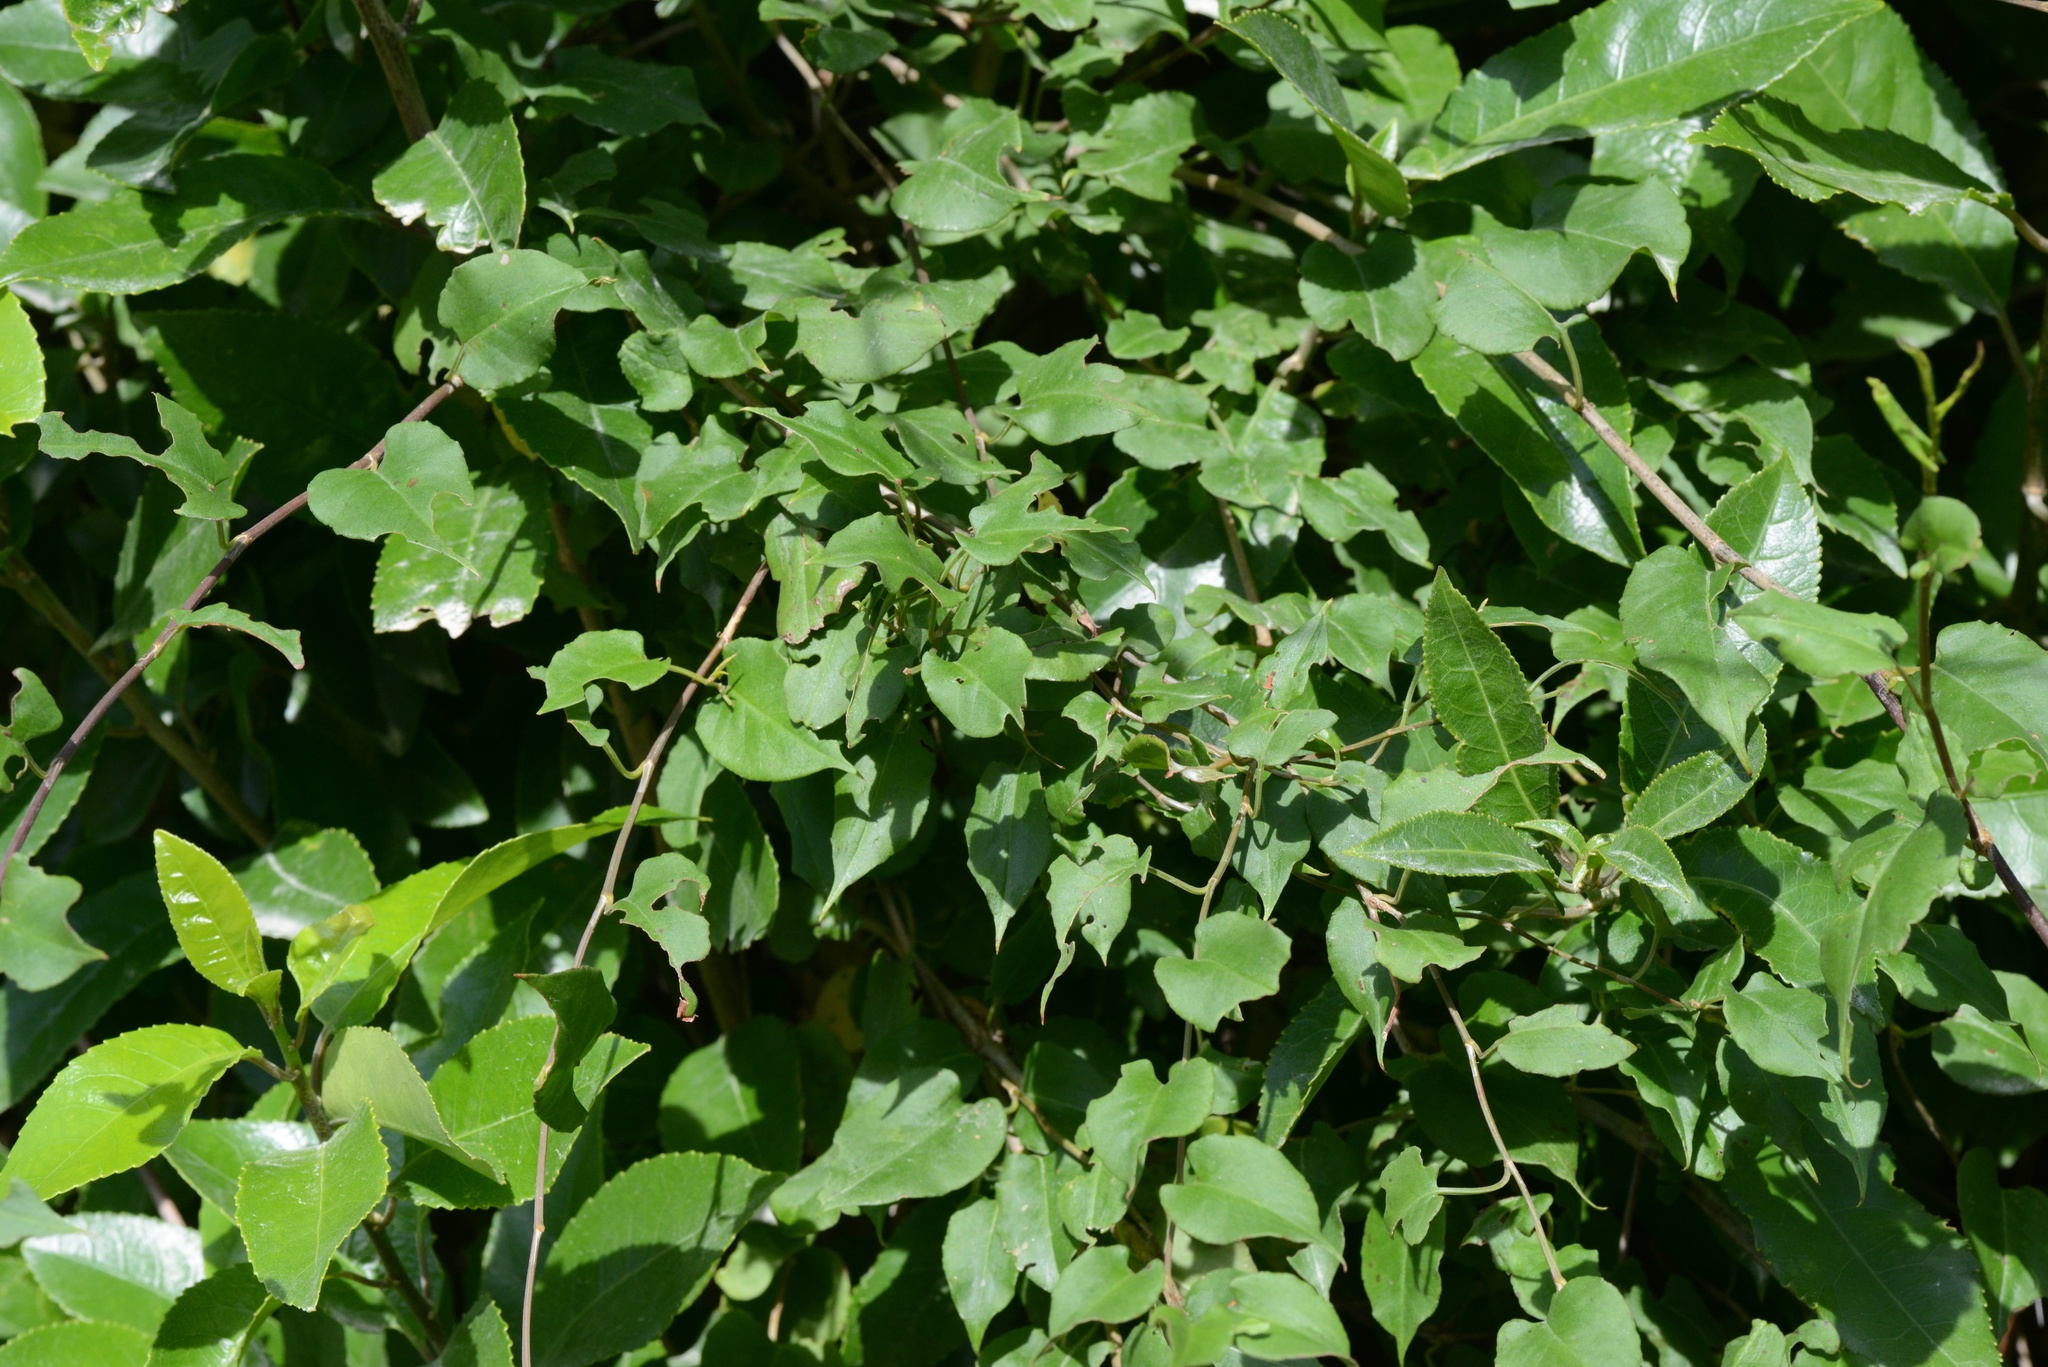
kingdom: Plantae
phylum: Tracheophyta
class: Magnoliopsida
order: Caryophyllales
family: Polygonaceae
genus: Muehlenbeckia
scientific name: Muehlenbeckia australis
